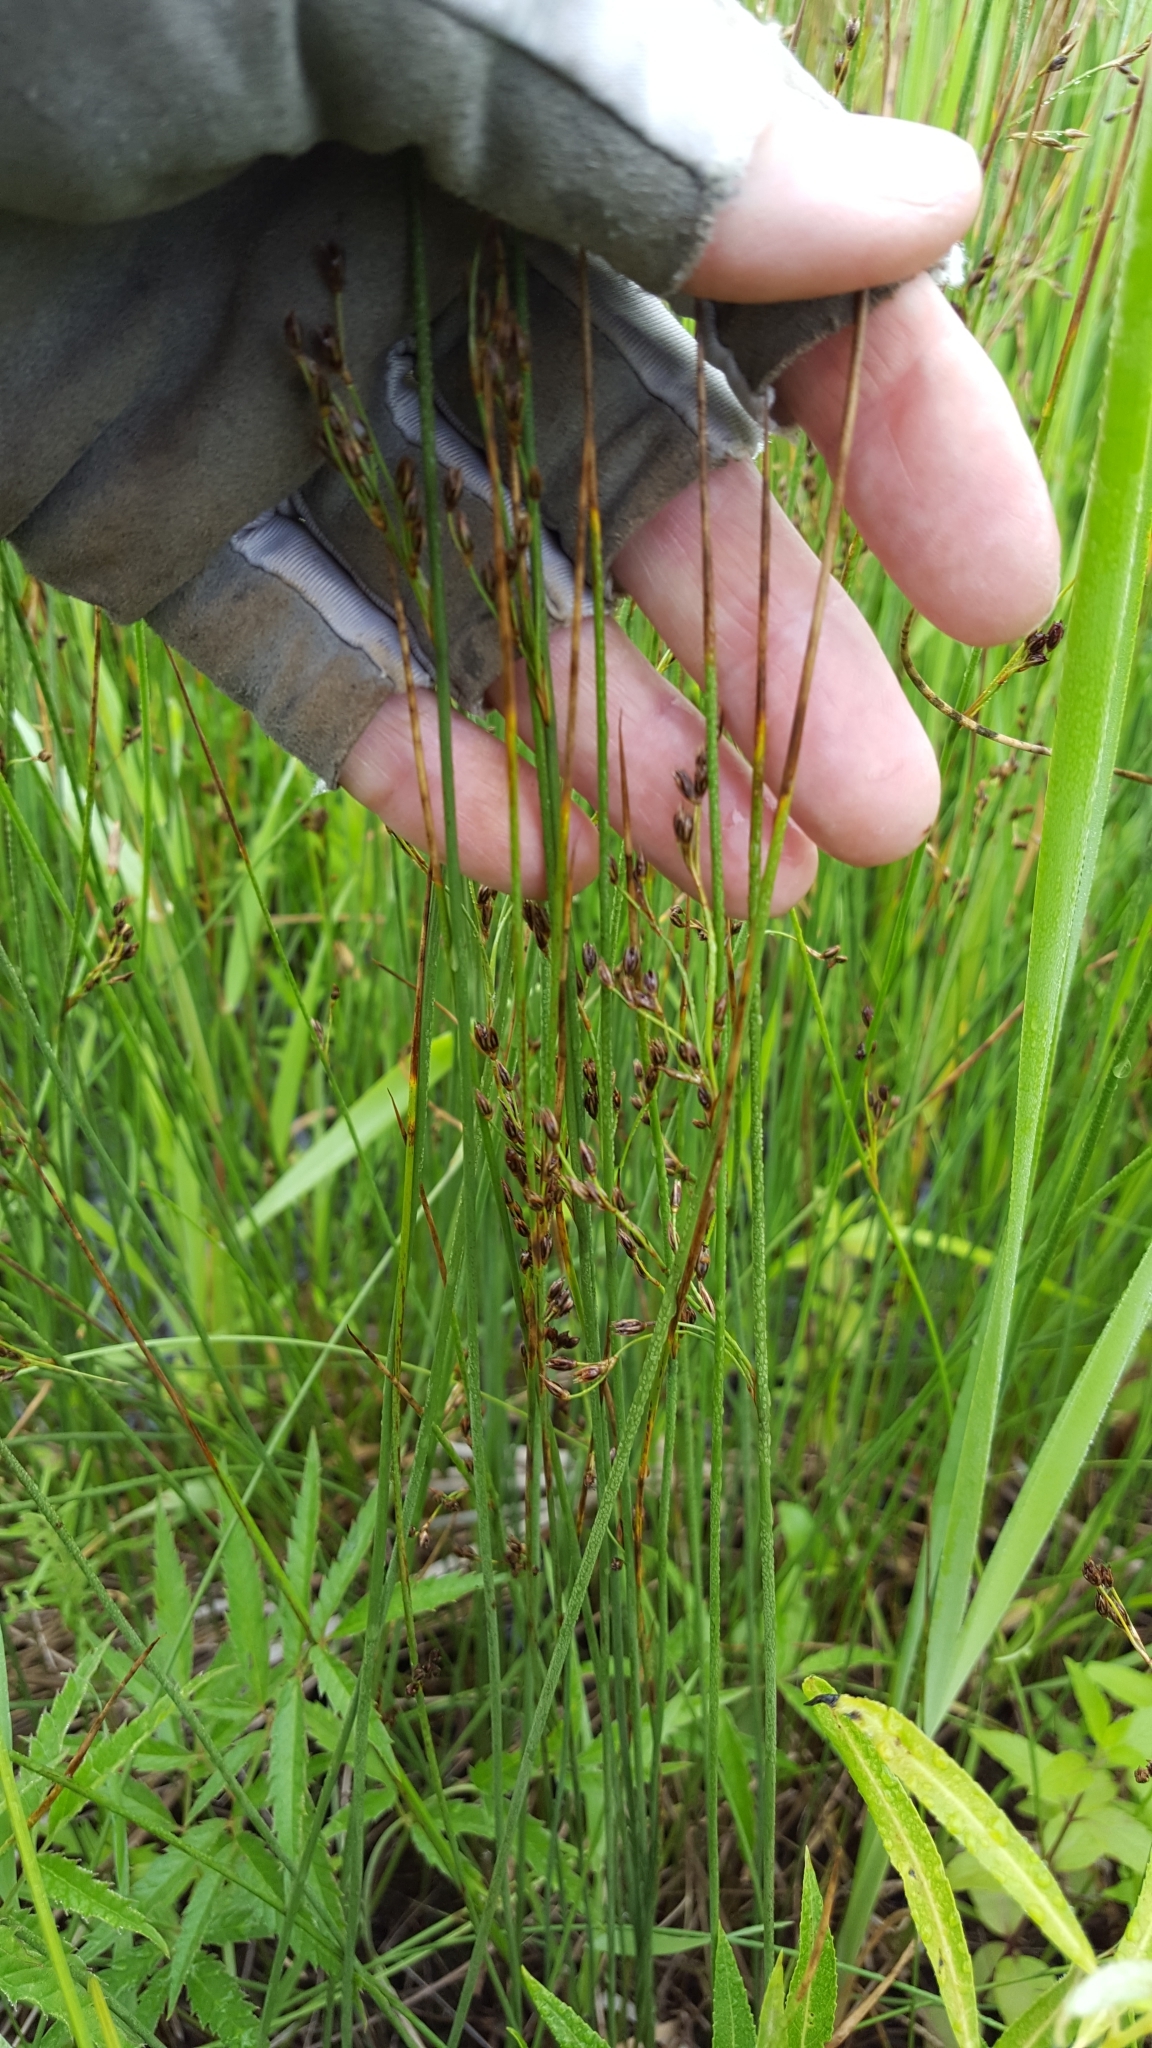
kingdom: Plantae
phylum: Tracheophyta
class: Liliopsida
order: Poales
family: Juncaceae
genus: Juncus
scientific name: Juncus balticus
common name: Baltic rush
